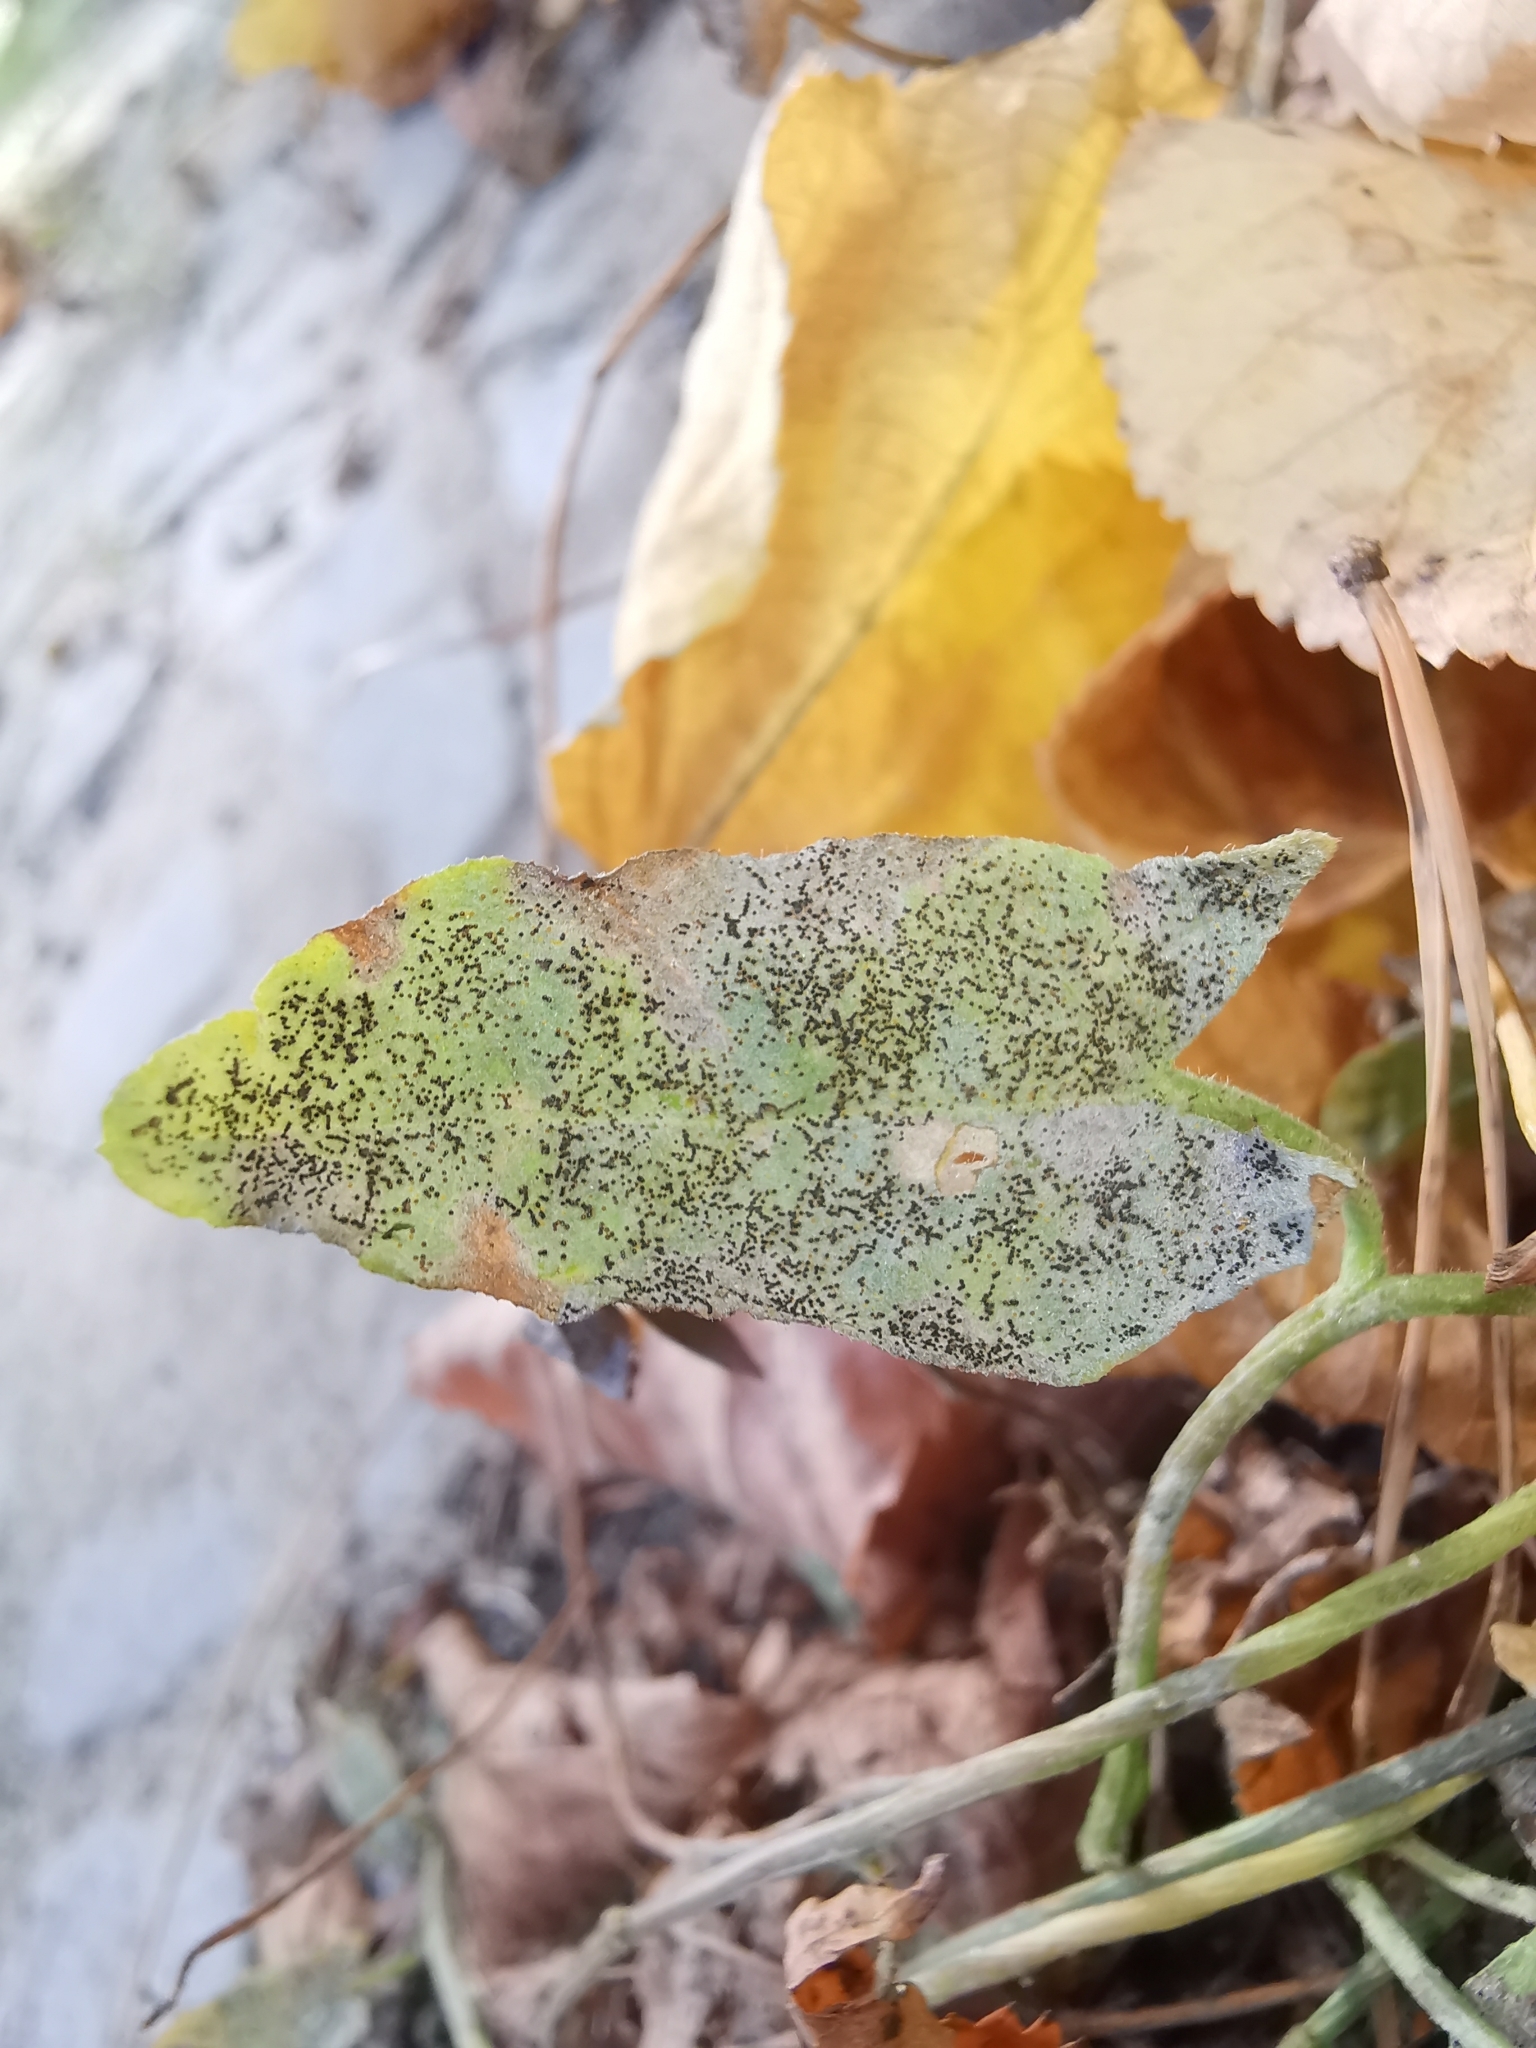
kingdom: Fungi
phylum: Ascomycota
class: Leotiomycetes
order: Helotiales
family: Erysiphaceae
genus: Erysiphe
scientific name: Erysiphe convolvuli
